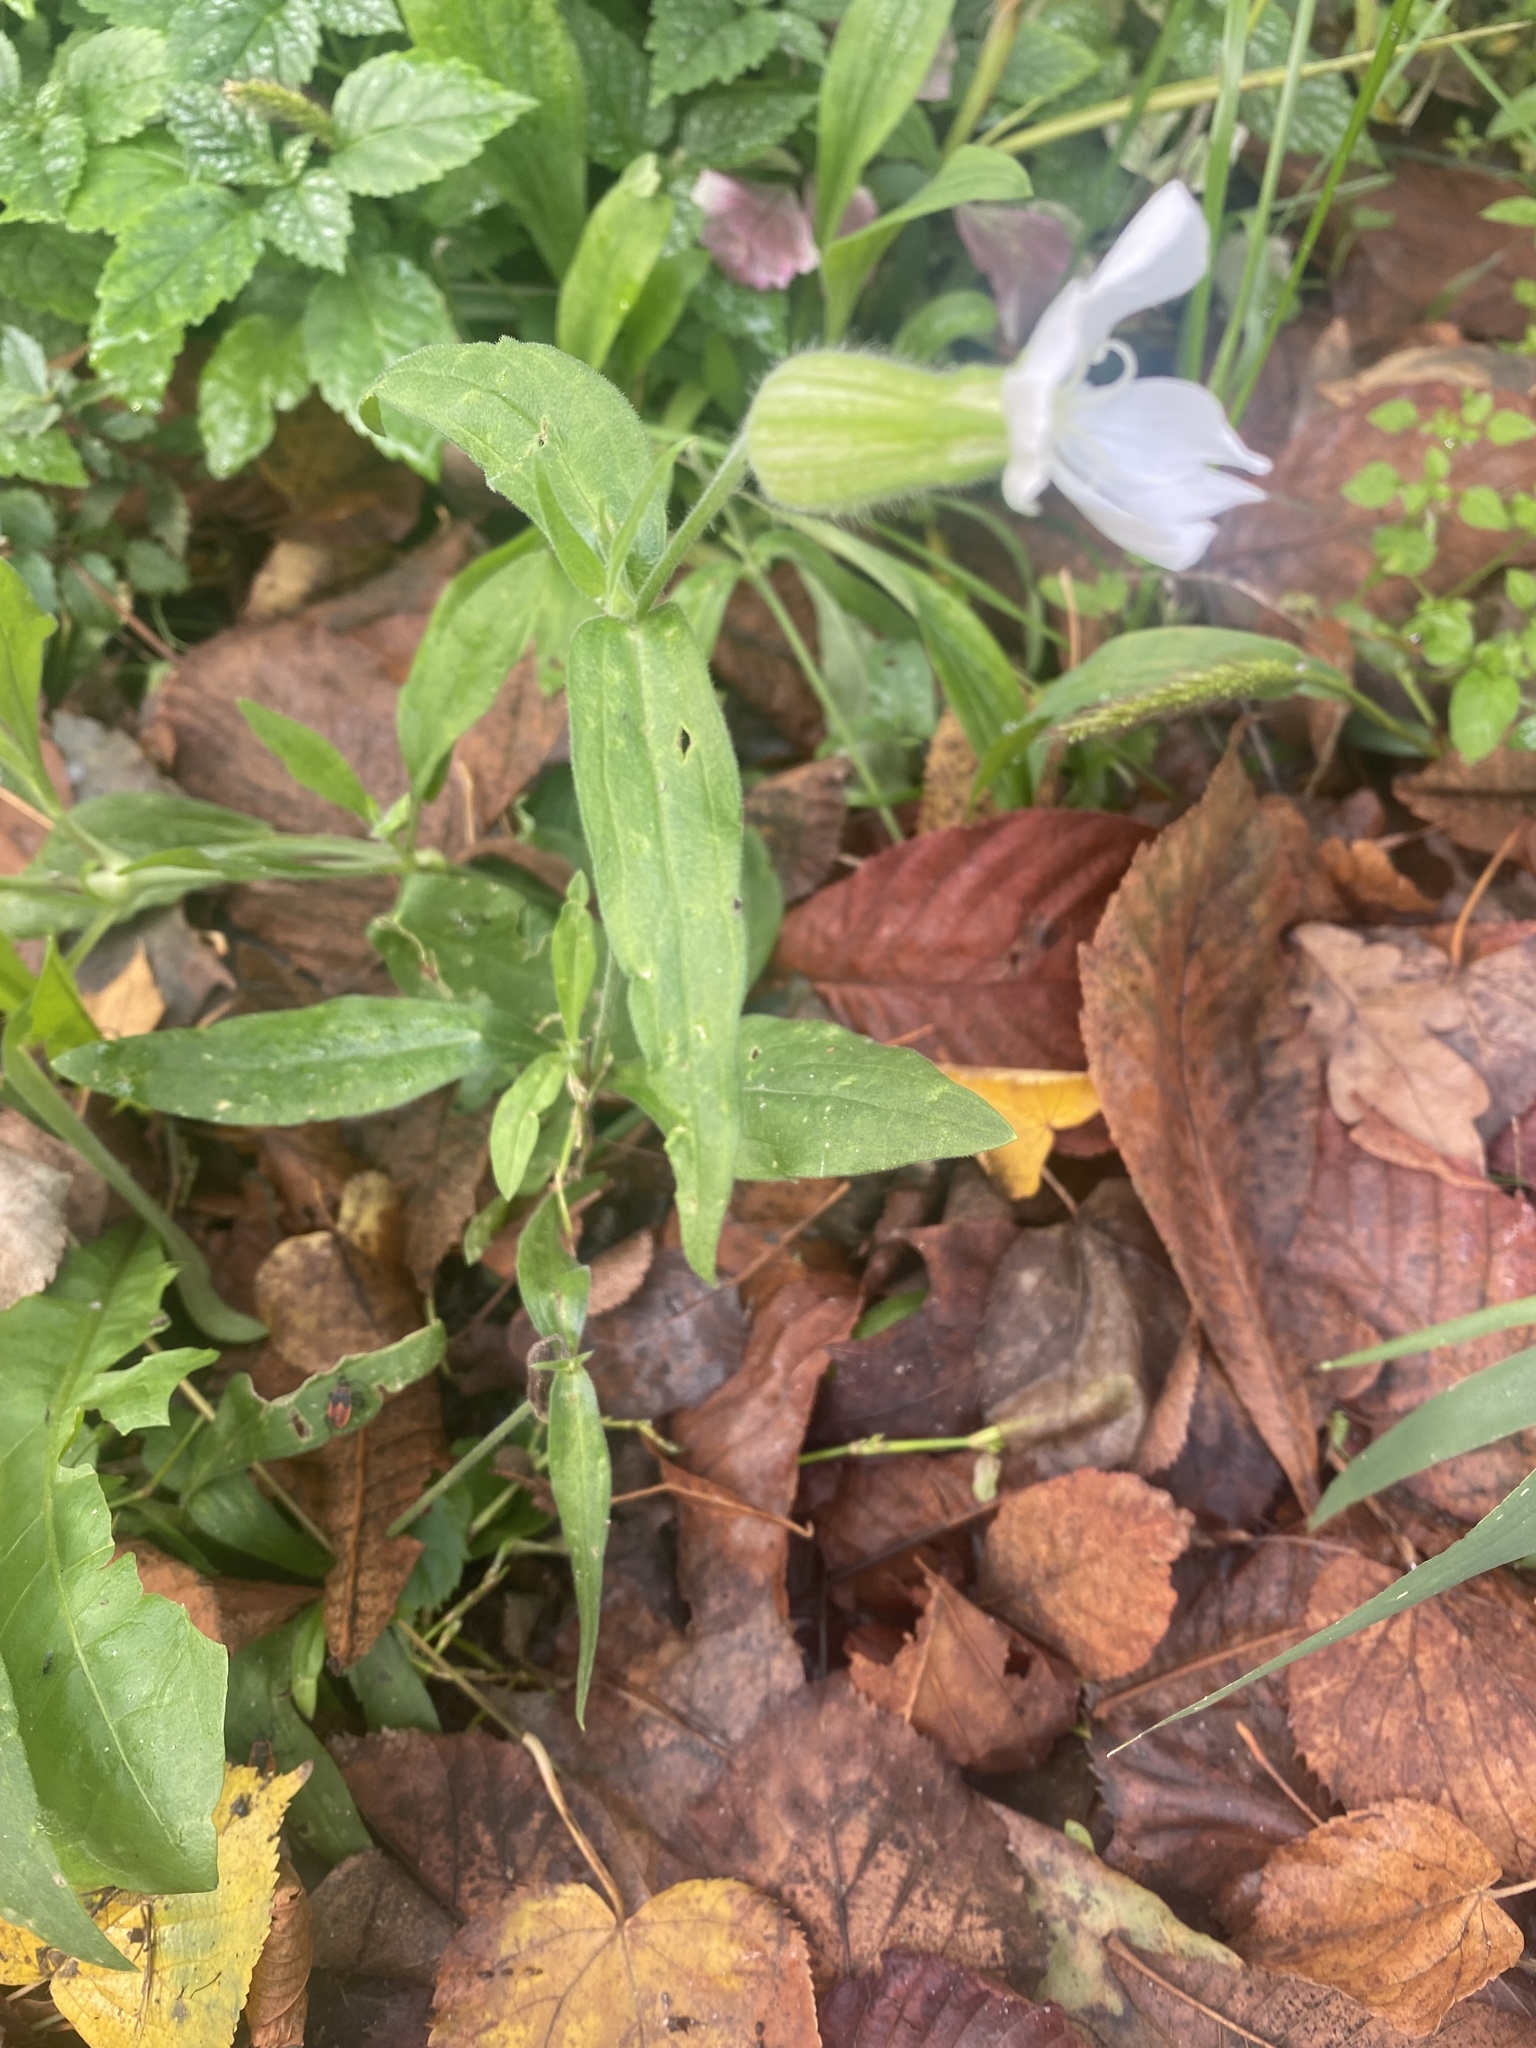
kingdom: Plantae
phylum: Tracheophyta
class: Magnoliopsida
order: Caryophyllales
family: Caryophyllaceae
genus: Silene
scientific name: Silene latifolia
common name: White campion
